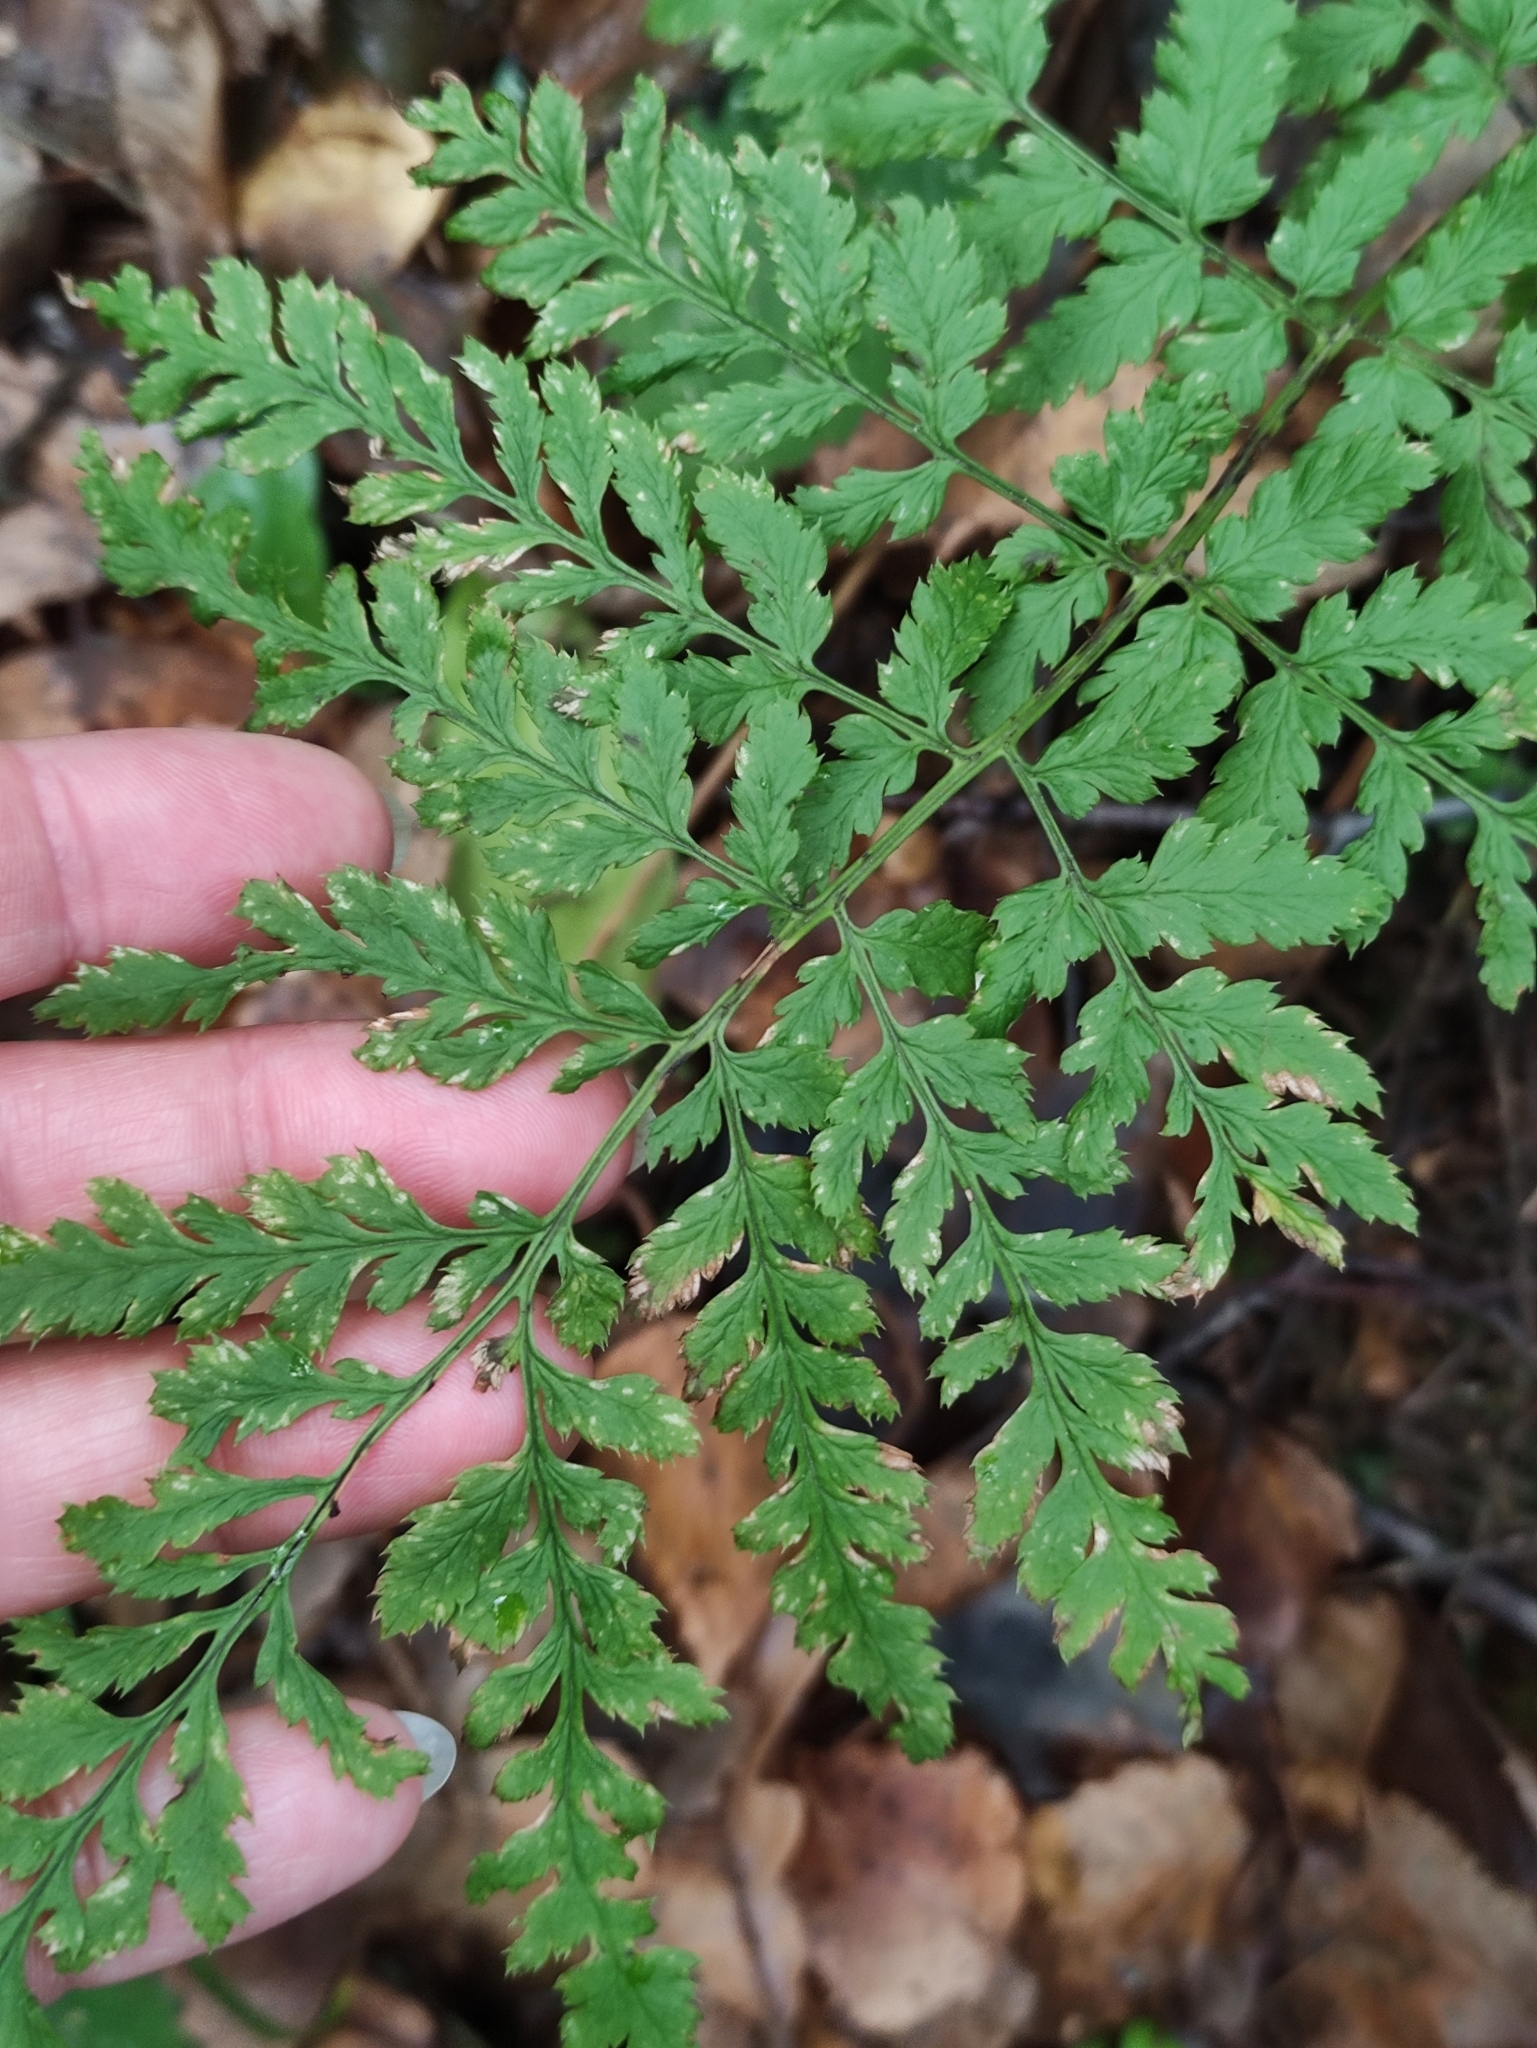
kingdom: Plantae
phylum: Tracheophyta
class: Polypodiopsida
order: Polypodiales
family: Dryopteridaceae
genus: Dryopteris
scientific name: Dryopteris carthusiana
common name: Narrow buckler-fern
